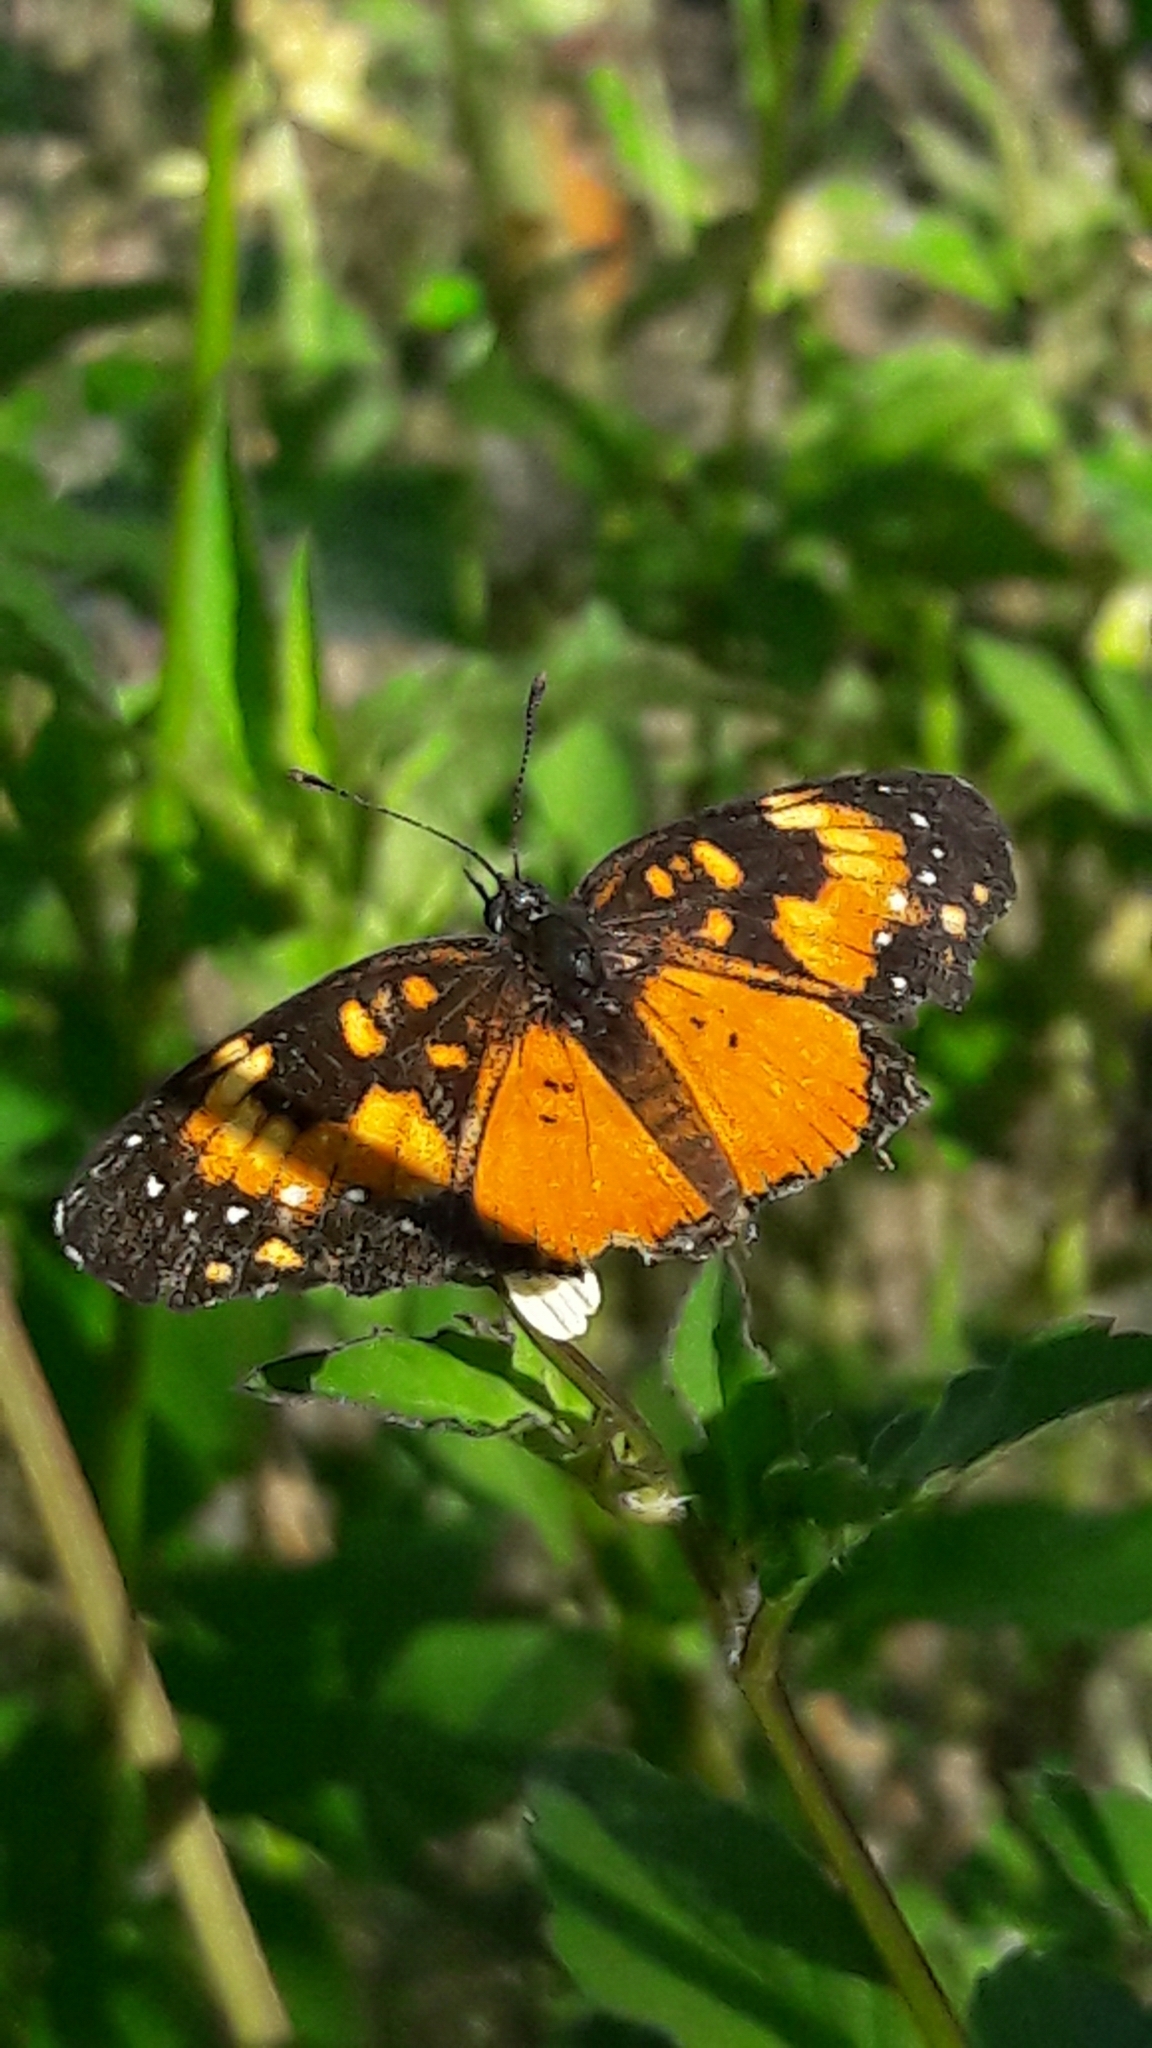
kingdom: Animalia
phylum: Arthropoda
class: Insecta
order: Lepidoptera
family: Nymphalidae
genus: Chlosyne
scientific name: Chlosyne lacinia
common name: Bordered patch
